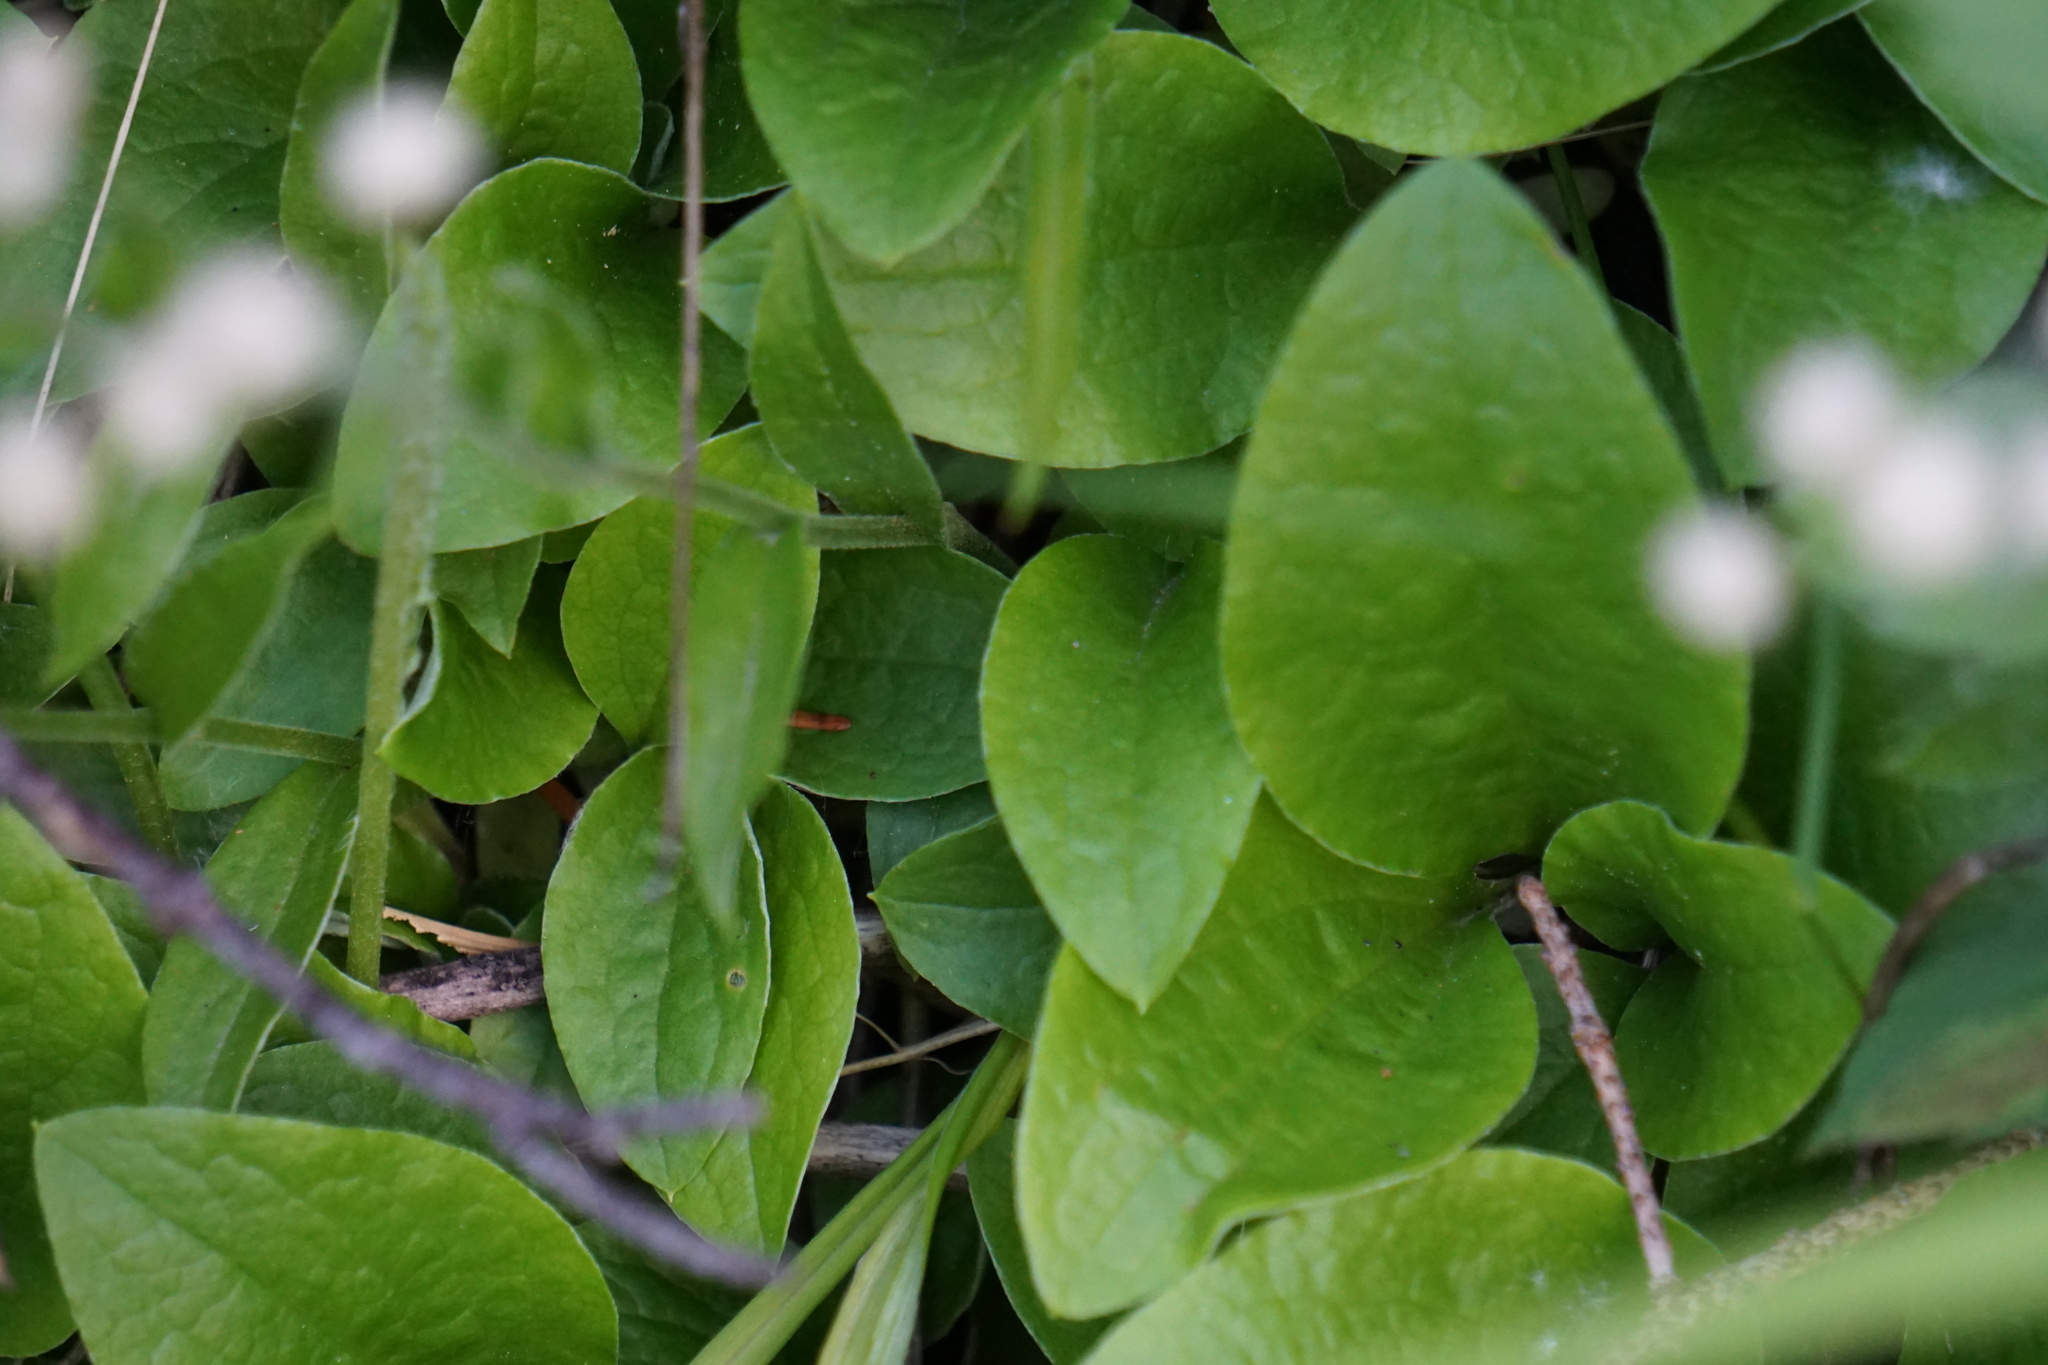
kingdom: Plantae
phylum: Tracheophyta
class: Magnoliopsida
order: Asterales
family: Asteraceae
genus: Antennaria
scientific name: Antennaria racemosa
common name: Racemose pussytoes
